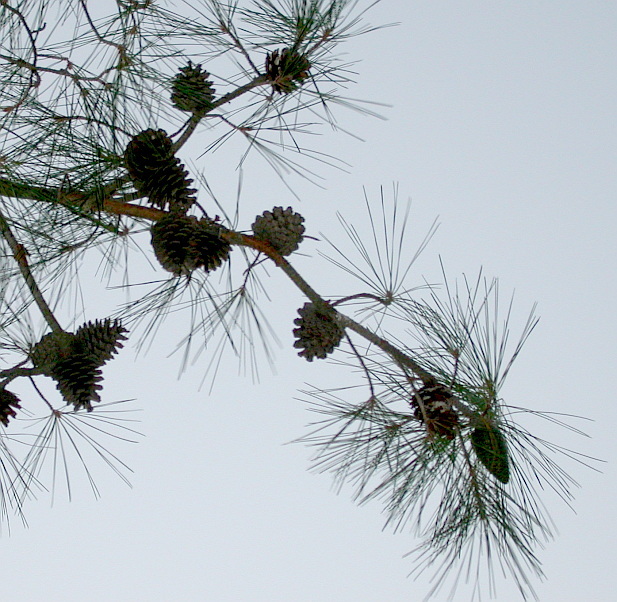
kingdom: Plantae
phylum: Tracheophyta
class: Pinopsida
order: Pinales
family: Pinaceae
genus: Pinus
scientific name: Pinus brutia
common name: Turkish pine
